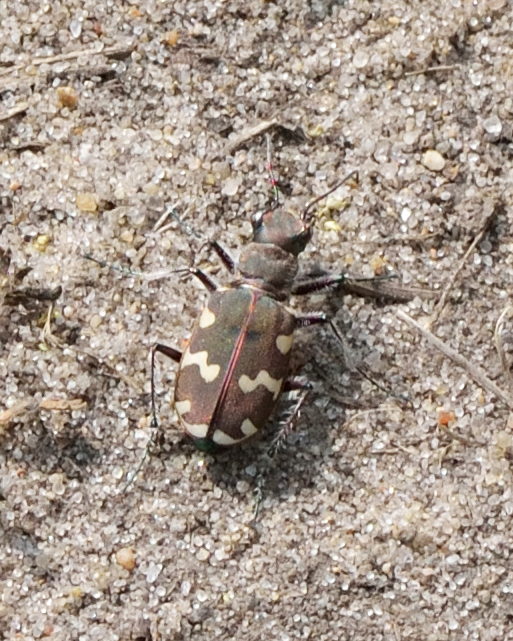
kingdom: Animalia
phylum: Arthropoda
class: Insecta
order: Coleoptera
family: Carabidae
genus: Cicindela
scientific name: Cicindela hybrida
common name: Northern dune tiger beetle
